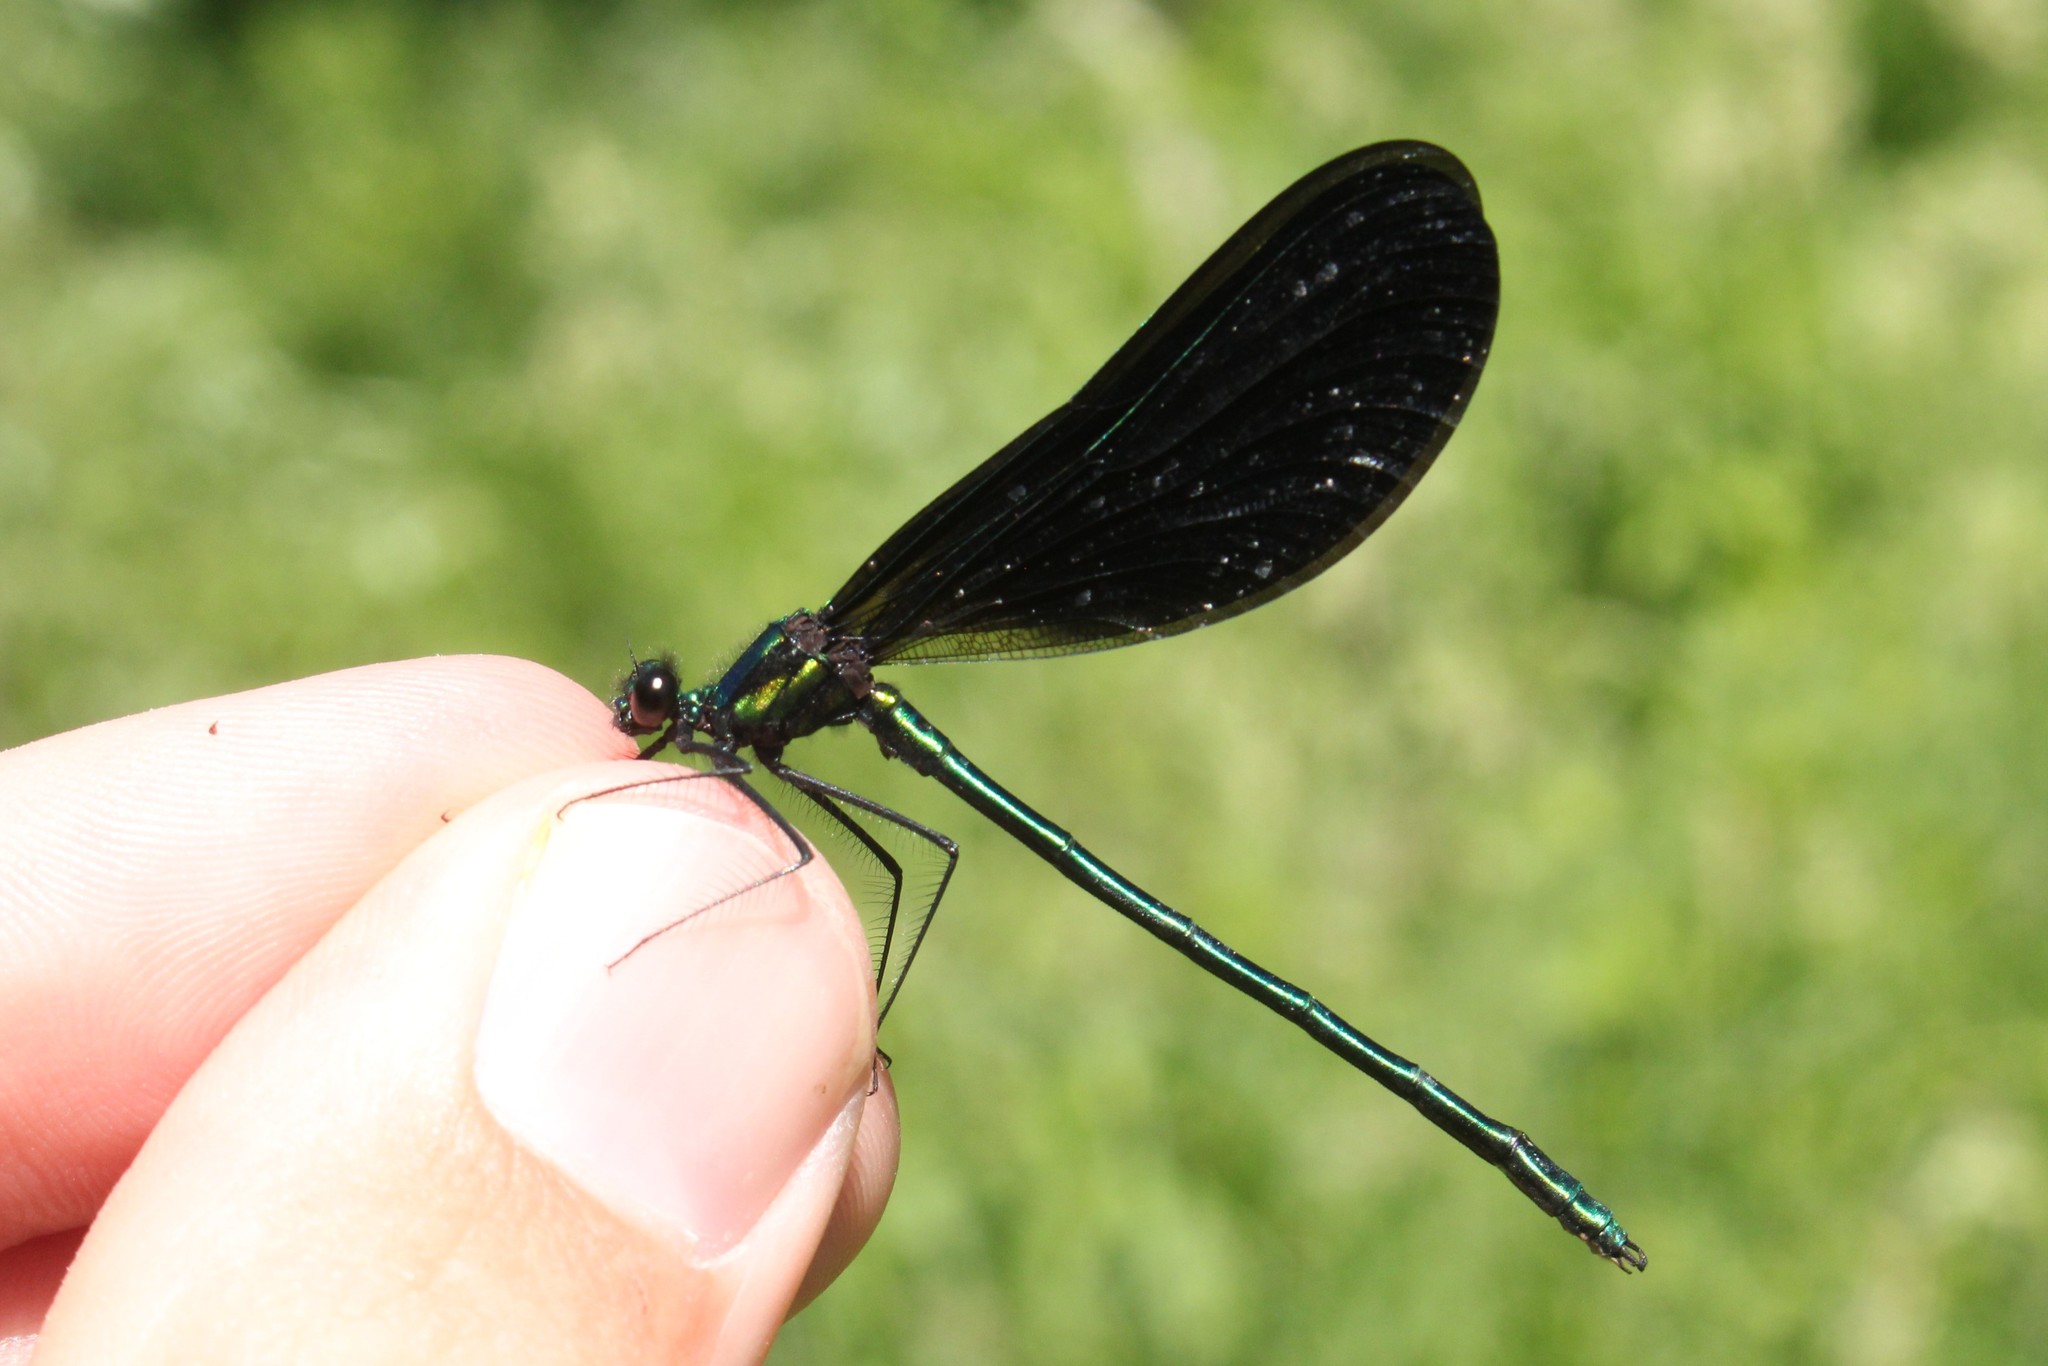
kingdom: Animalia
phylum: Arthropoda
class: Insecta
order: Odonata
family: Calopterygidae
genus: Calopteryx
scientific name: Calopteryx maculata
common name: Ebony jewelwing
